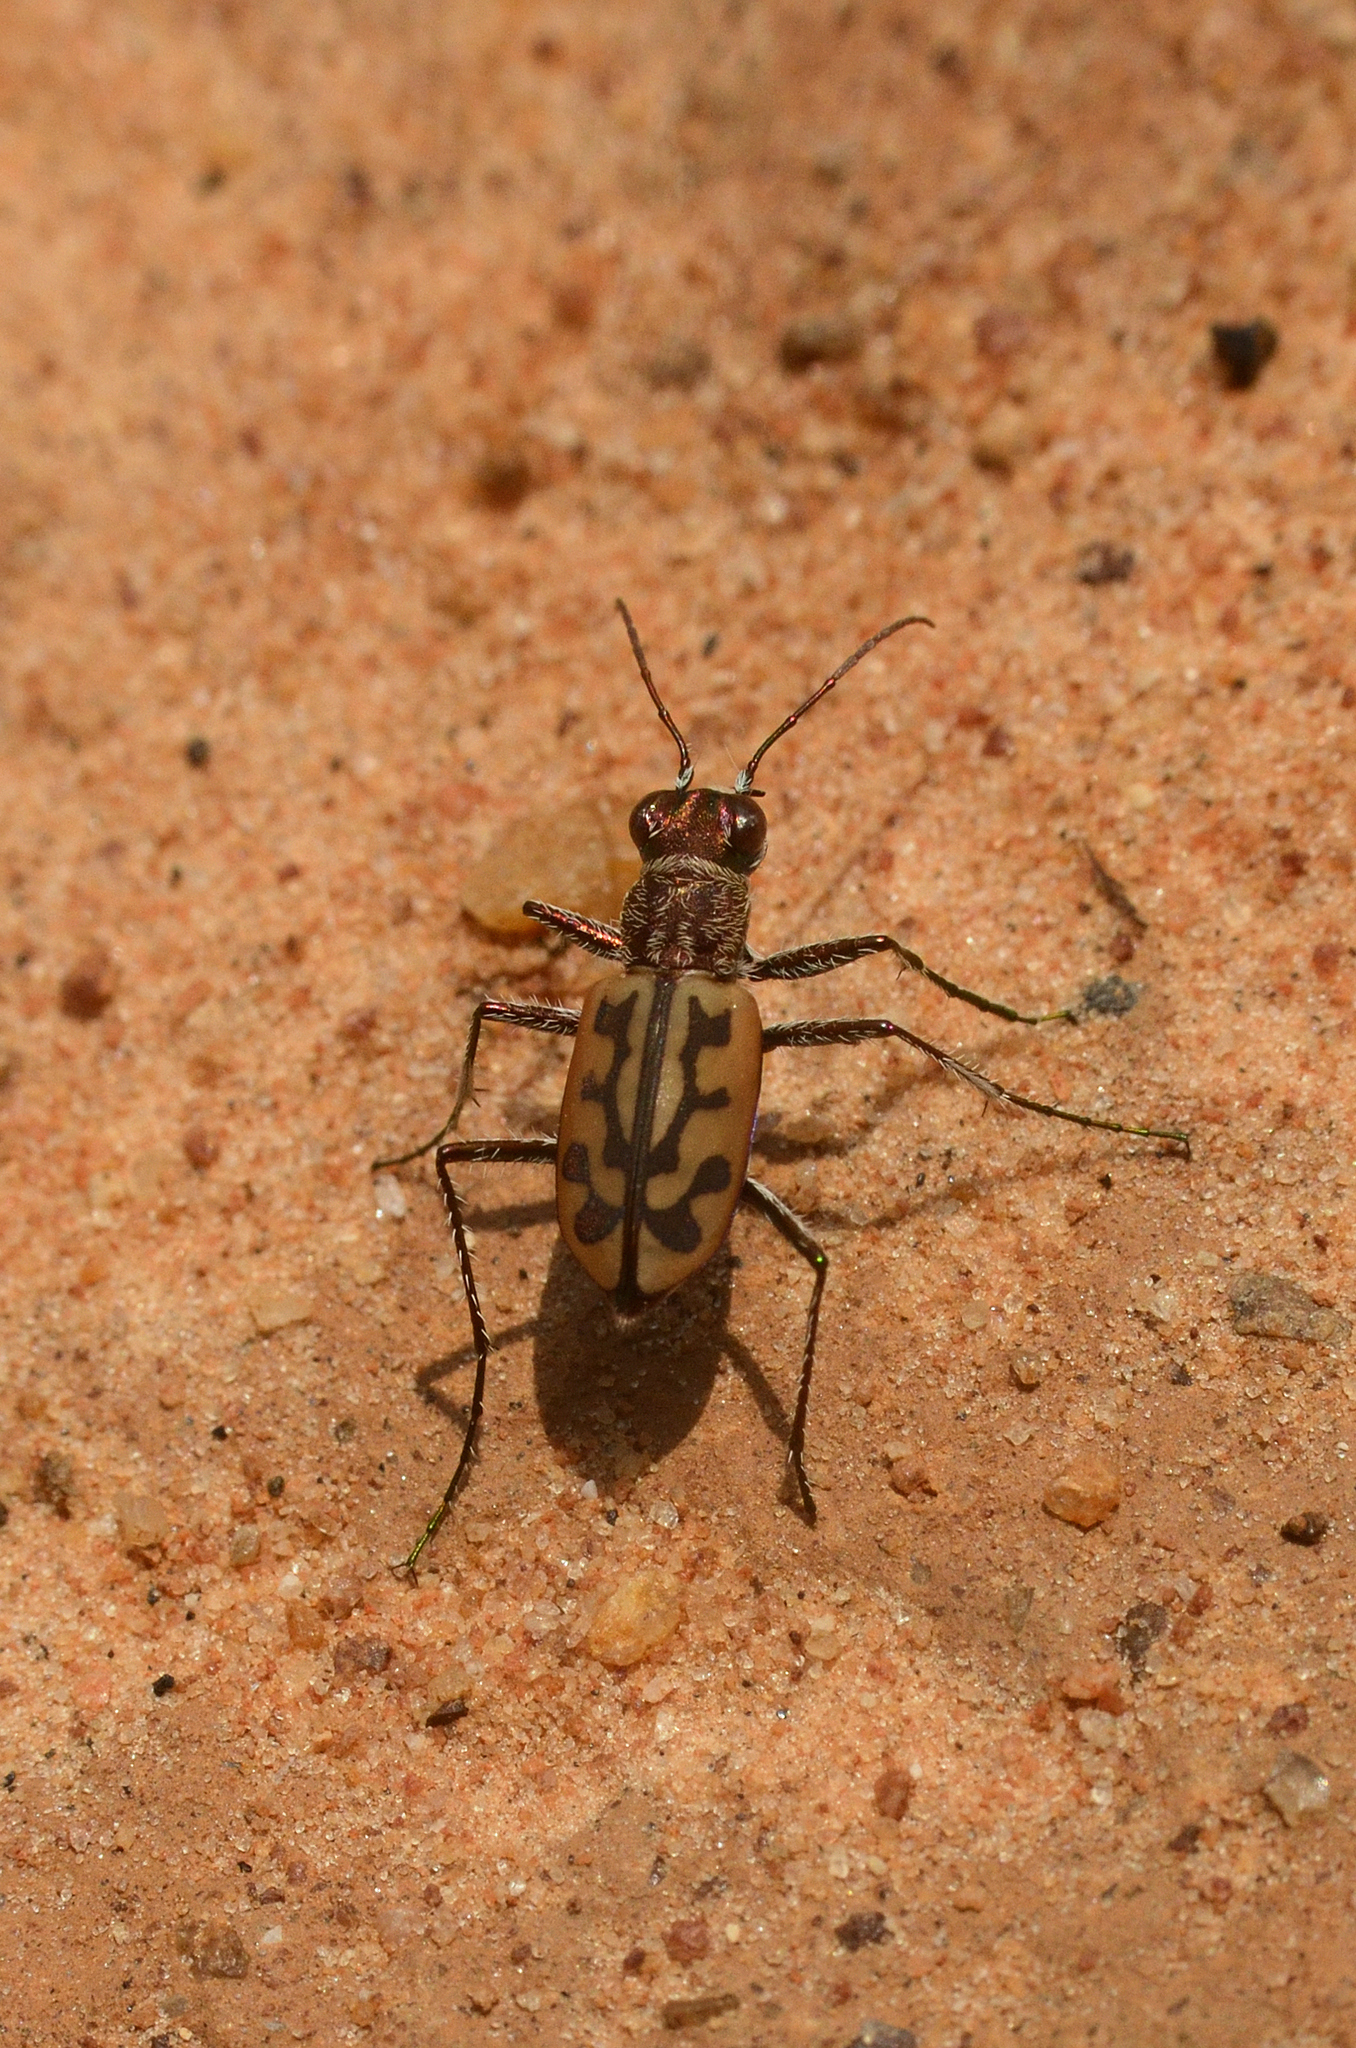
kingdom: Animalia
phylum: Arthropoda
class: Insecta
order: Coleoptera
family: Carabidae
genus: Lophyra
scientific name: Lophyra catena
